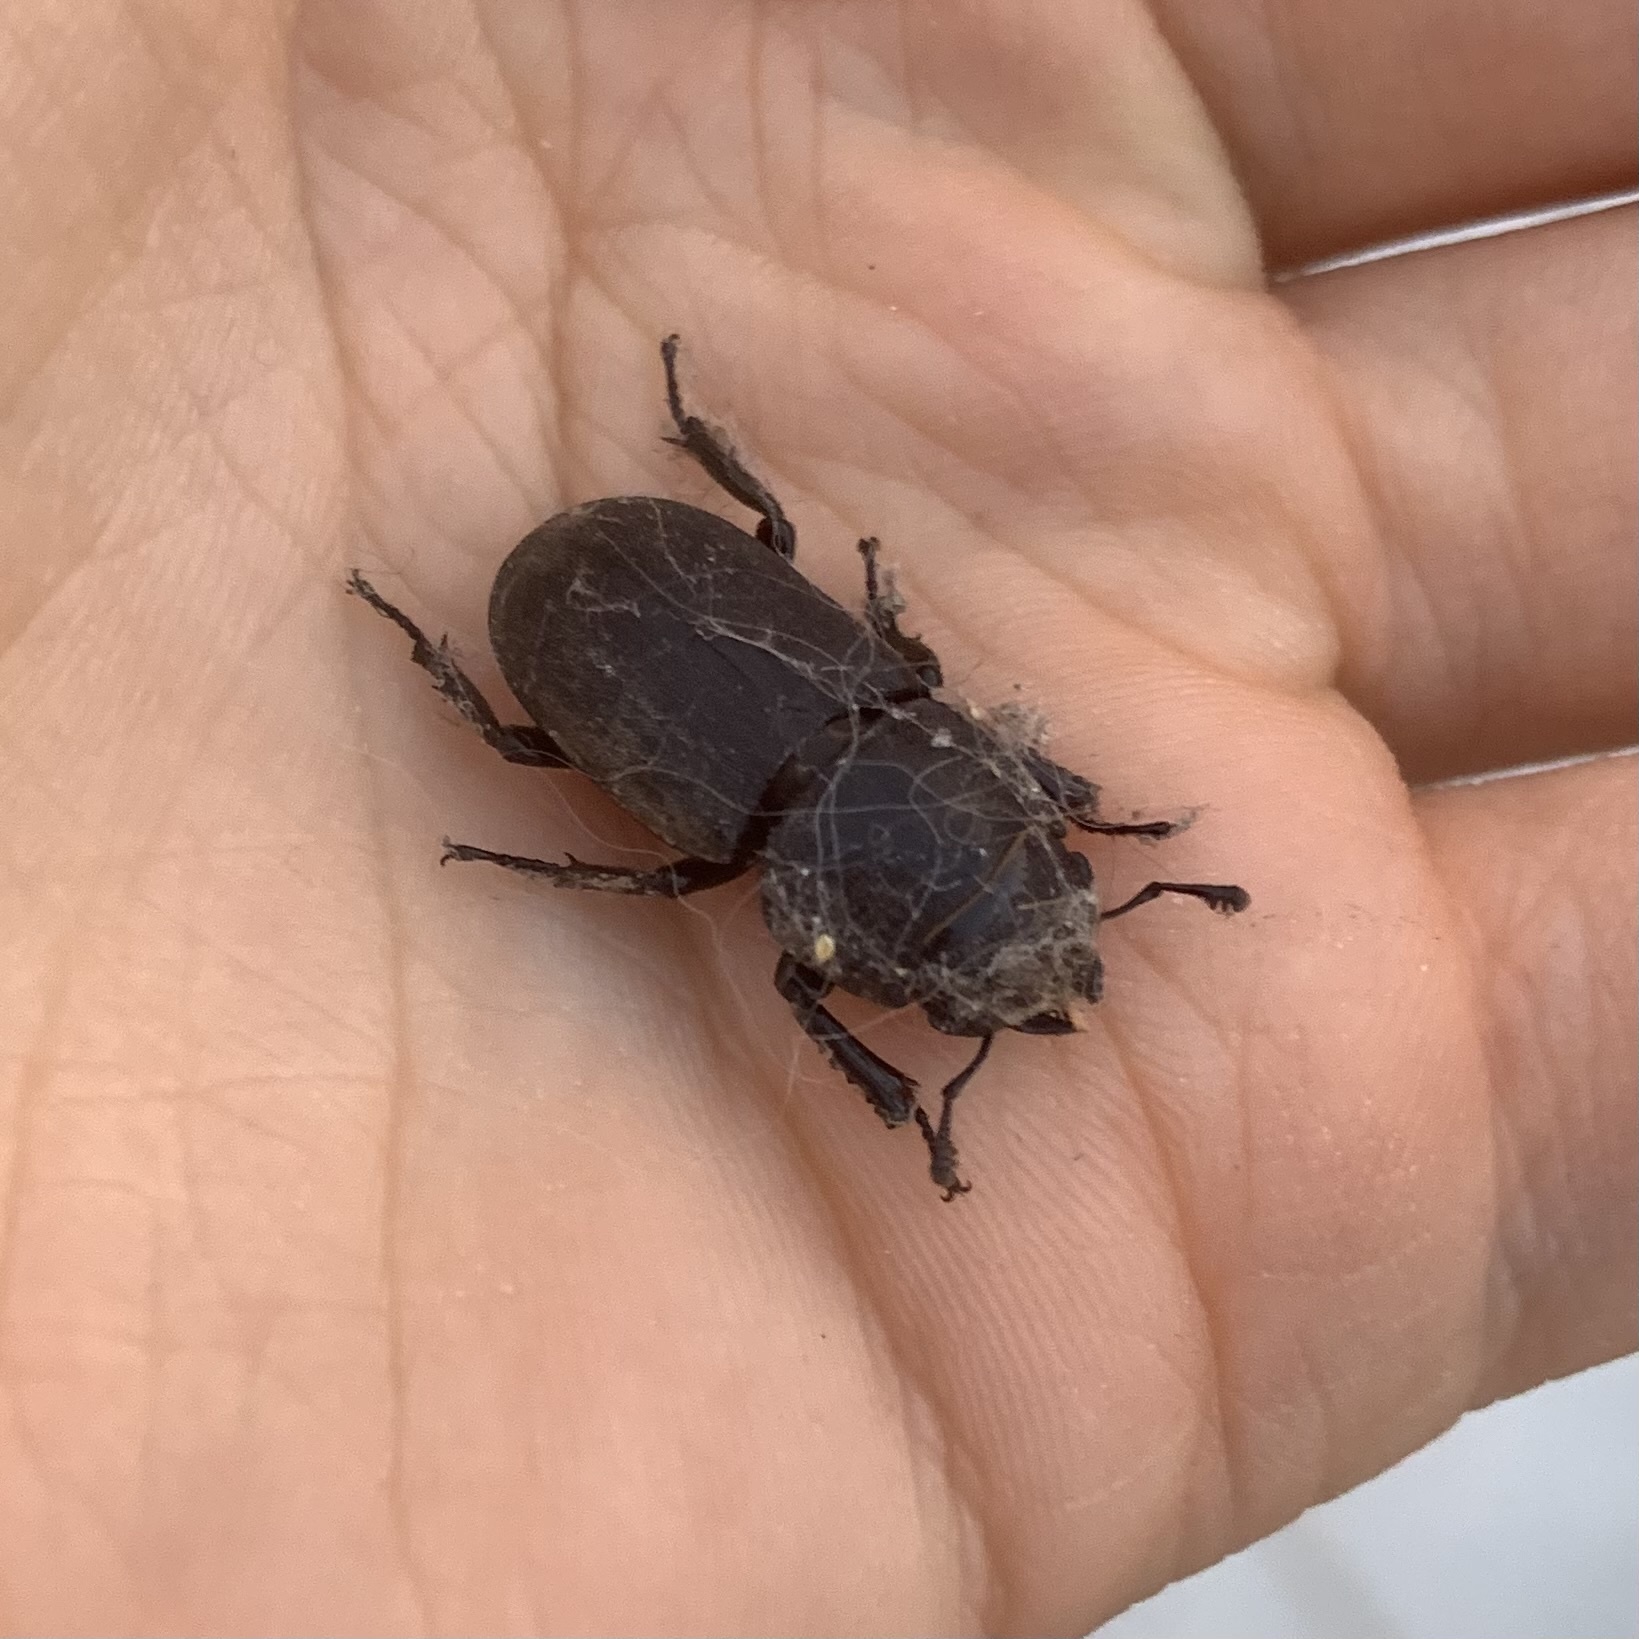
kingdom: Animalia
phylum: Arthropoda
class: Insecta
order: Coleoptera
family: Lucanidae
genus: Dorcus
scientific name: Dorcus parallelipipedus
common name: Lesser stag beetle
